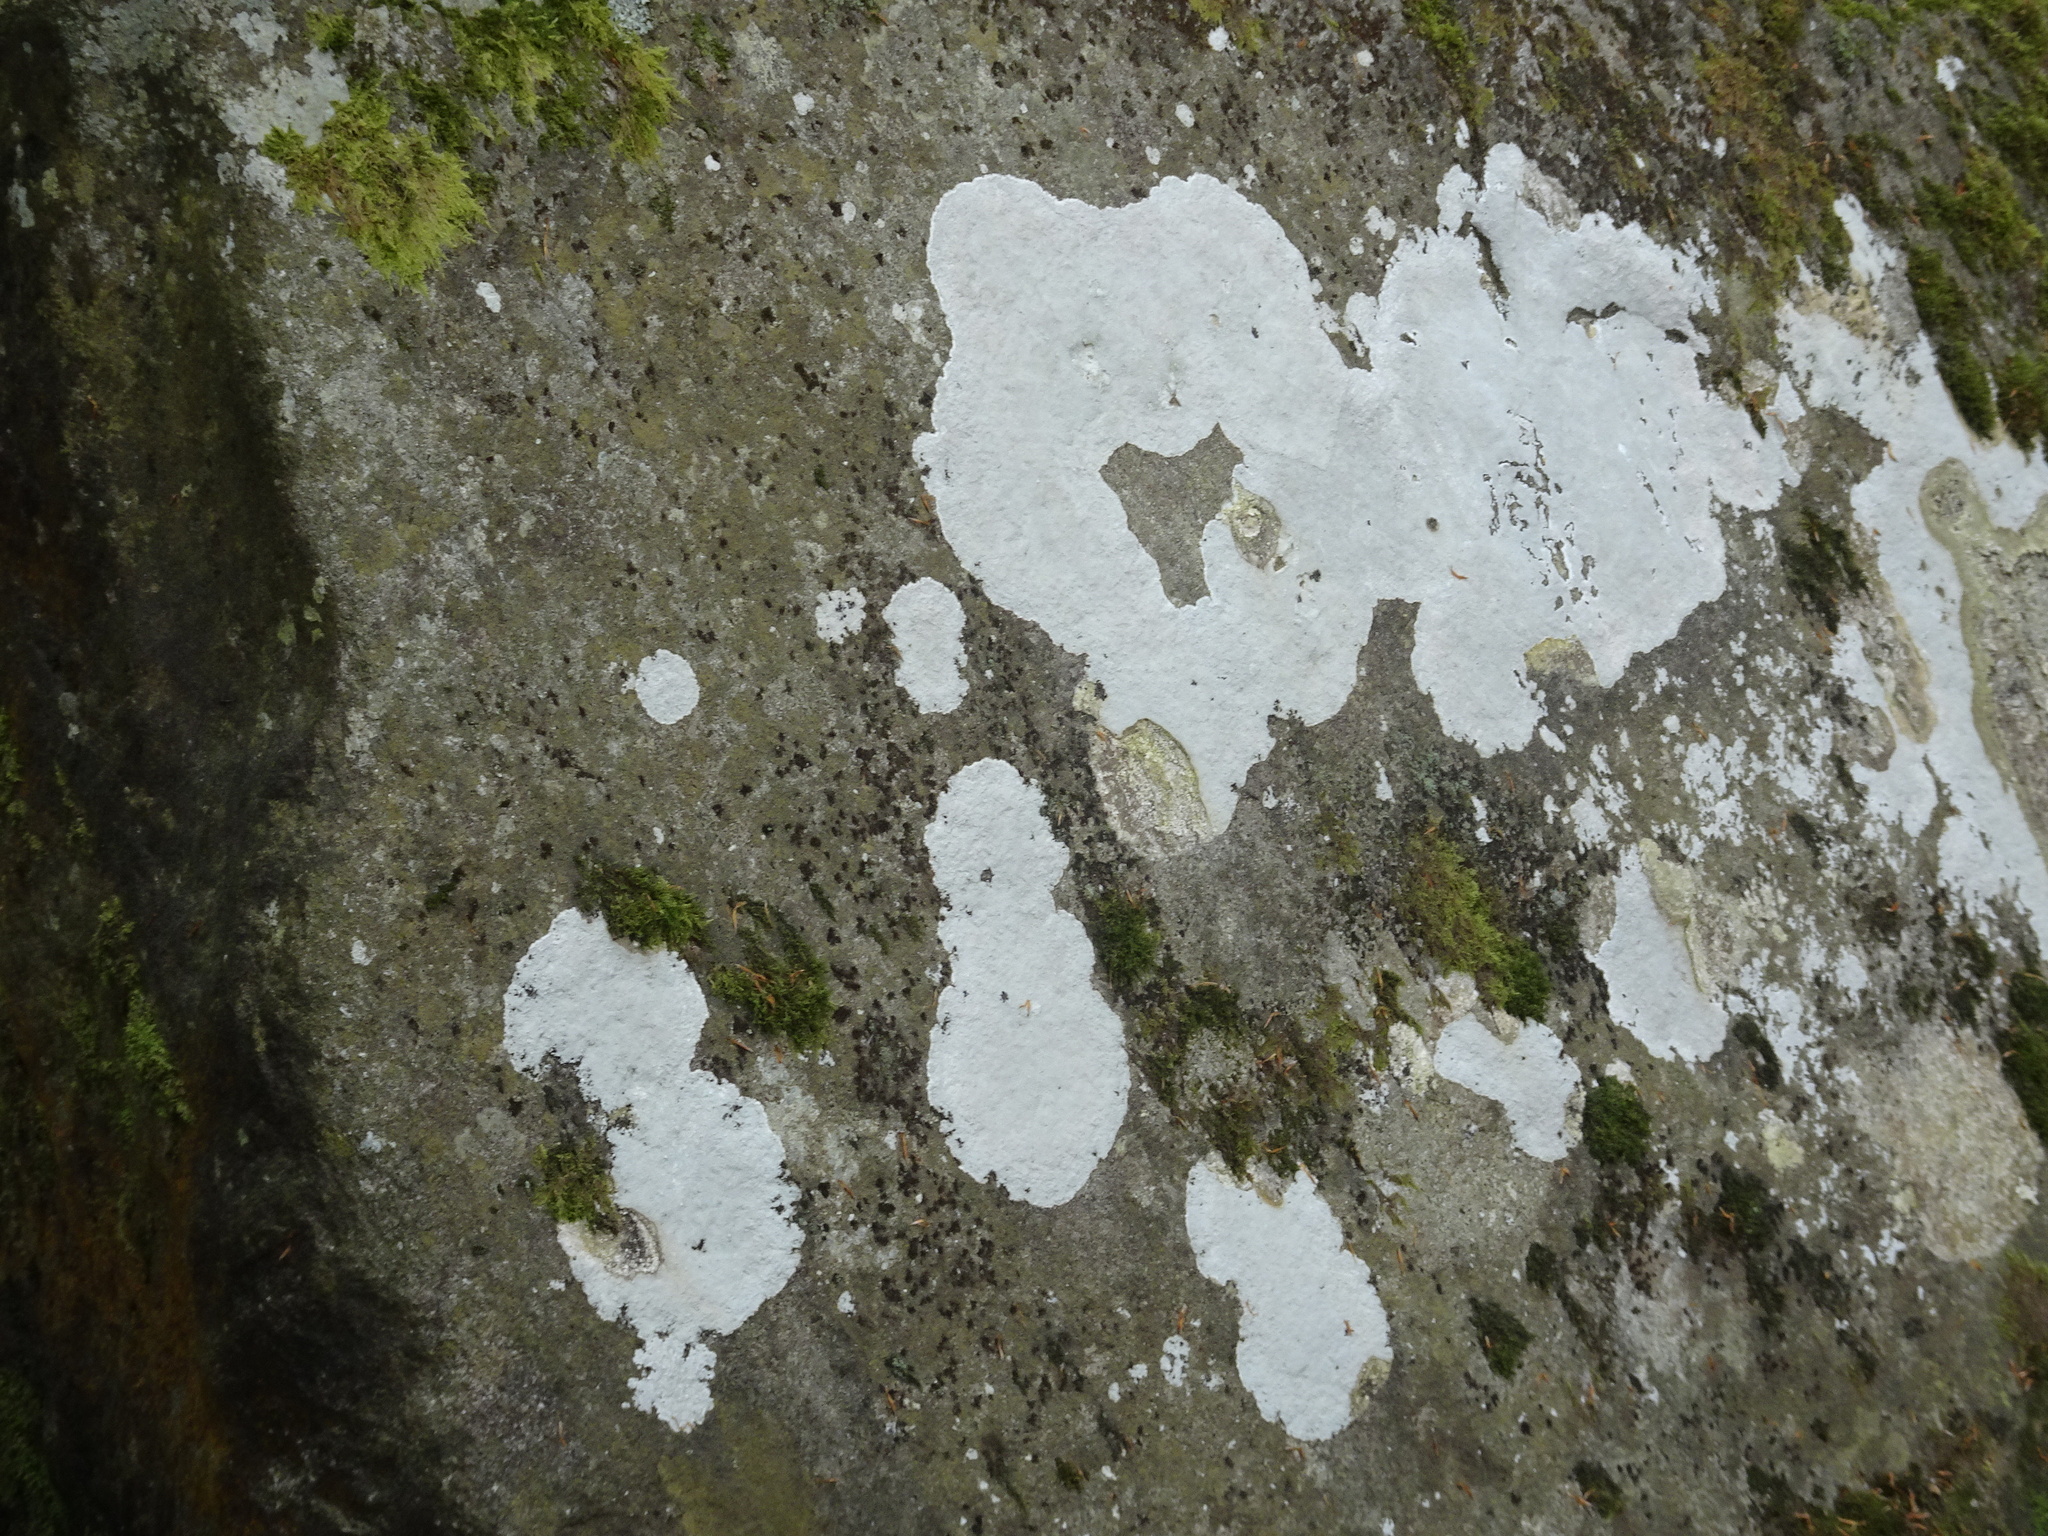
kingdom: Fungi
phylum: Ascomycota
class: Lecanoromycetes
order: Ostropales
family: Phlyctidaceae
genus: Phlyctis
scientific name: Phlyctis argena
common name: Whitewash lichen
